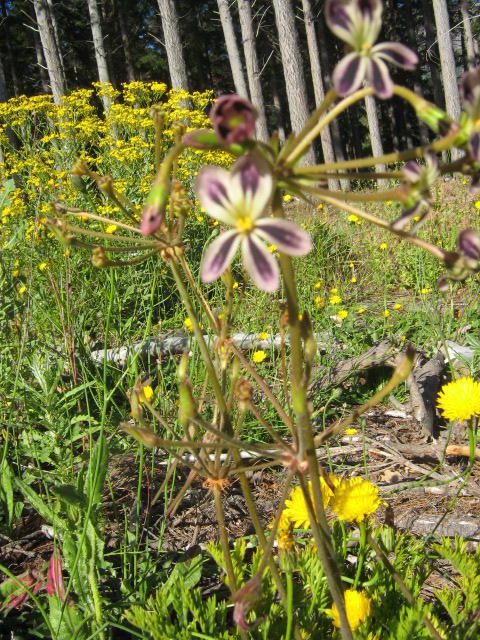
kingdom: Plantae
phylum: Tracheophyta
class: Magnoliopsida
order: Geraniales
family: Geraniaceae
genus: Pelargonium
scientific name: Pelargonium triste
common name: Night-scent pelargonium
